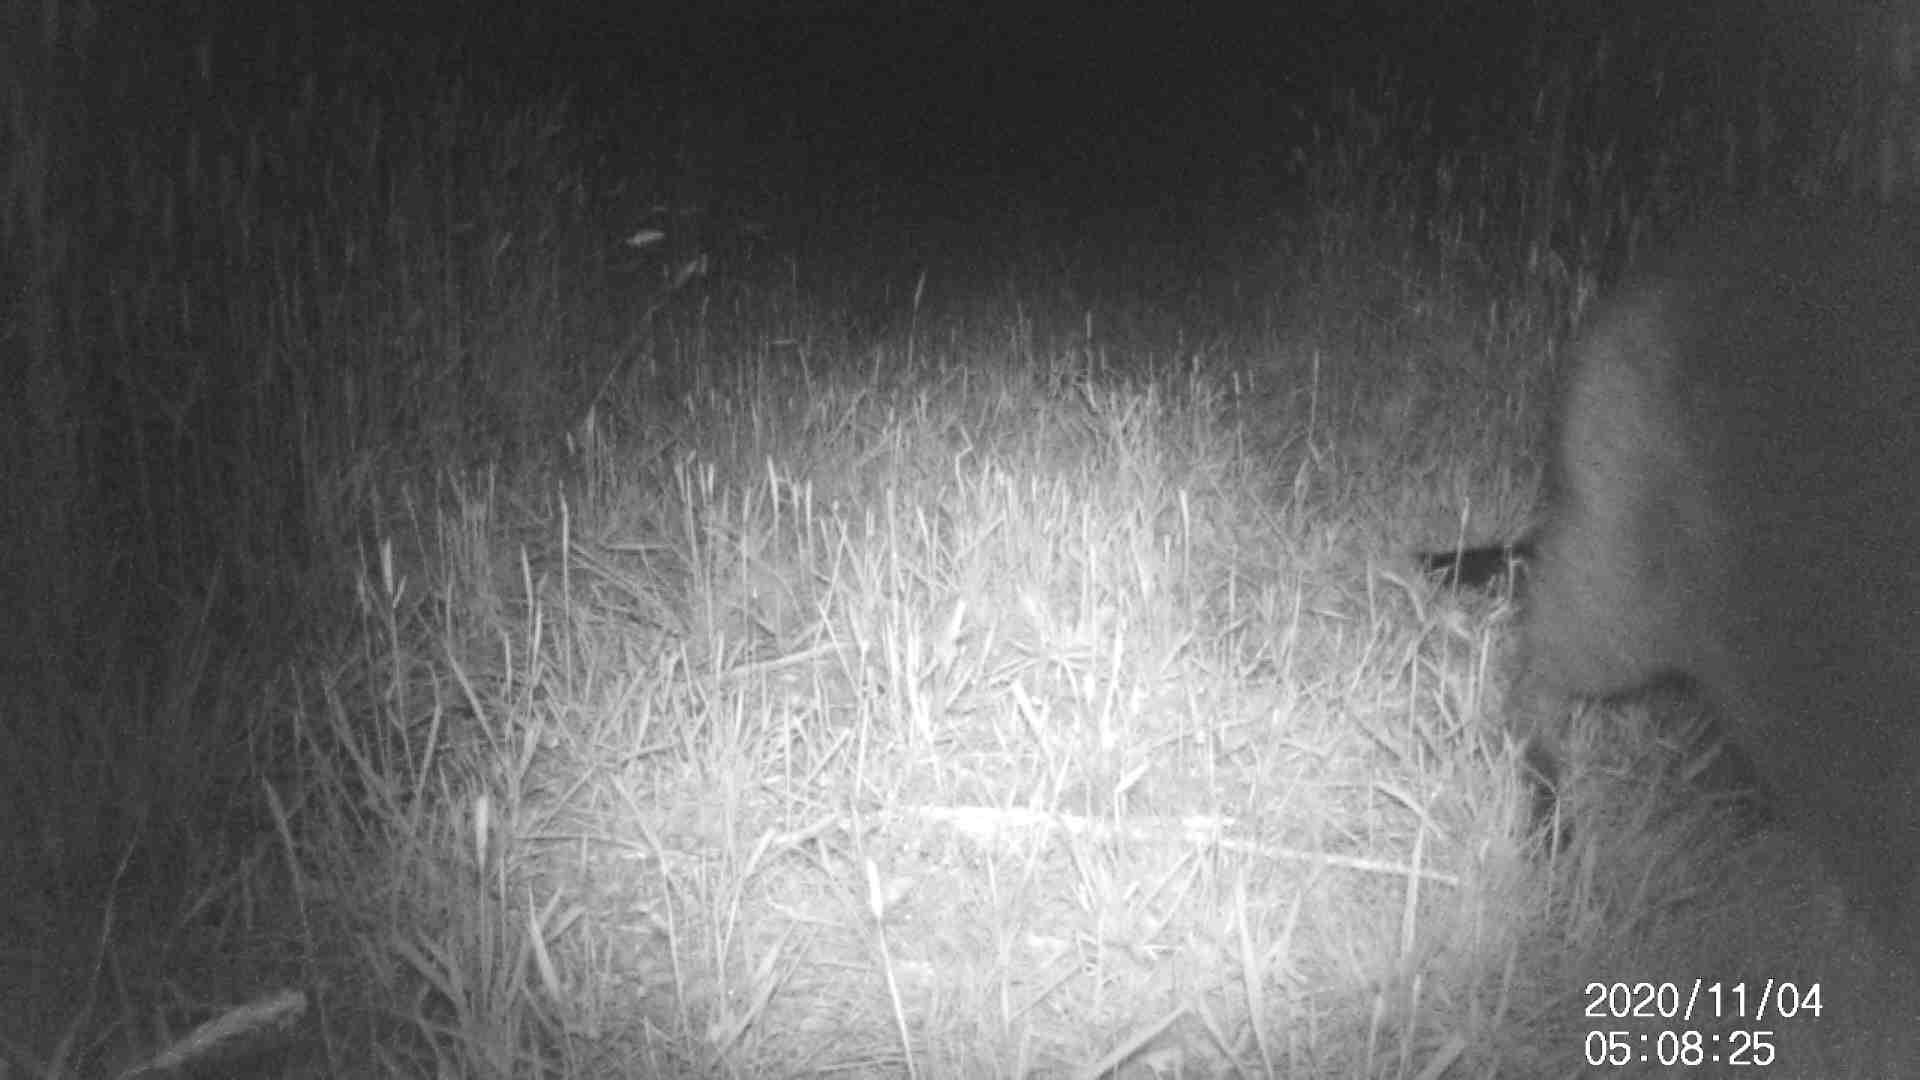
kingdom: Animalia
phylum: Chordata
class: Mammalia
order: Diprotodontia
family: Macropodidae
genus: Wallabia
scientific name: Wallabia bicolor
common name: Swamp wallaby
